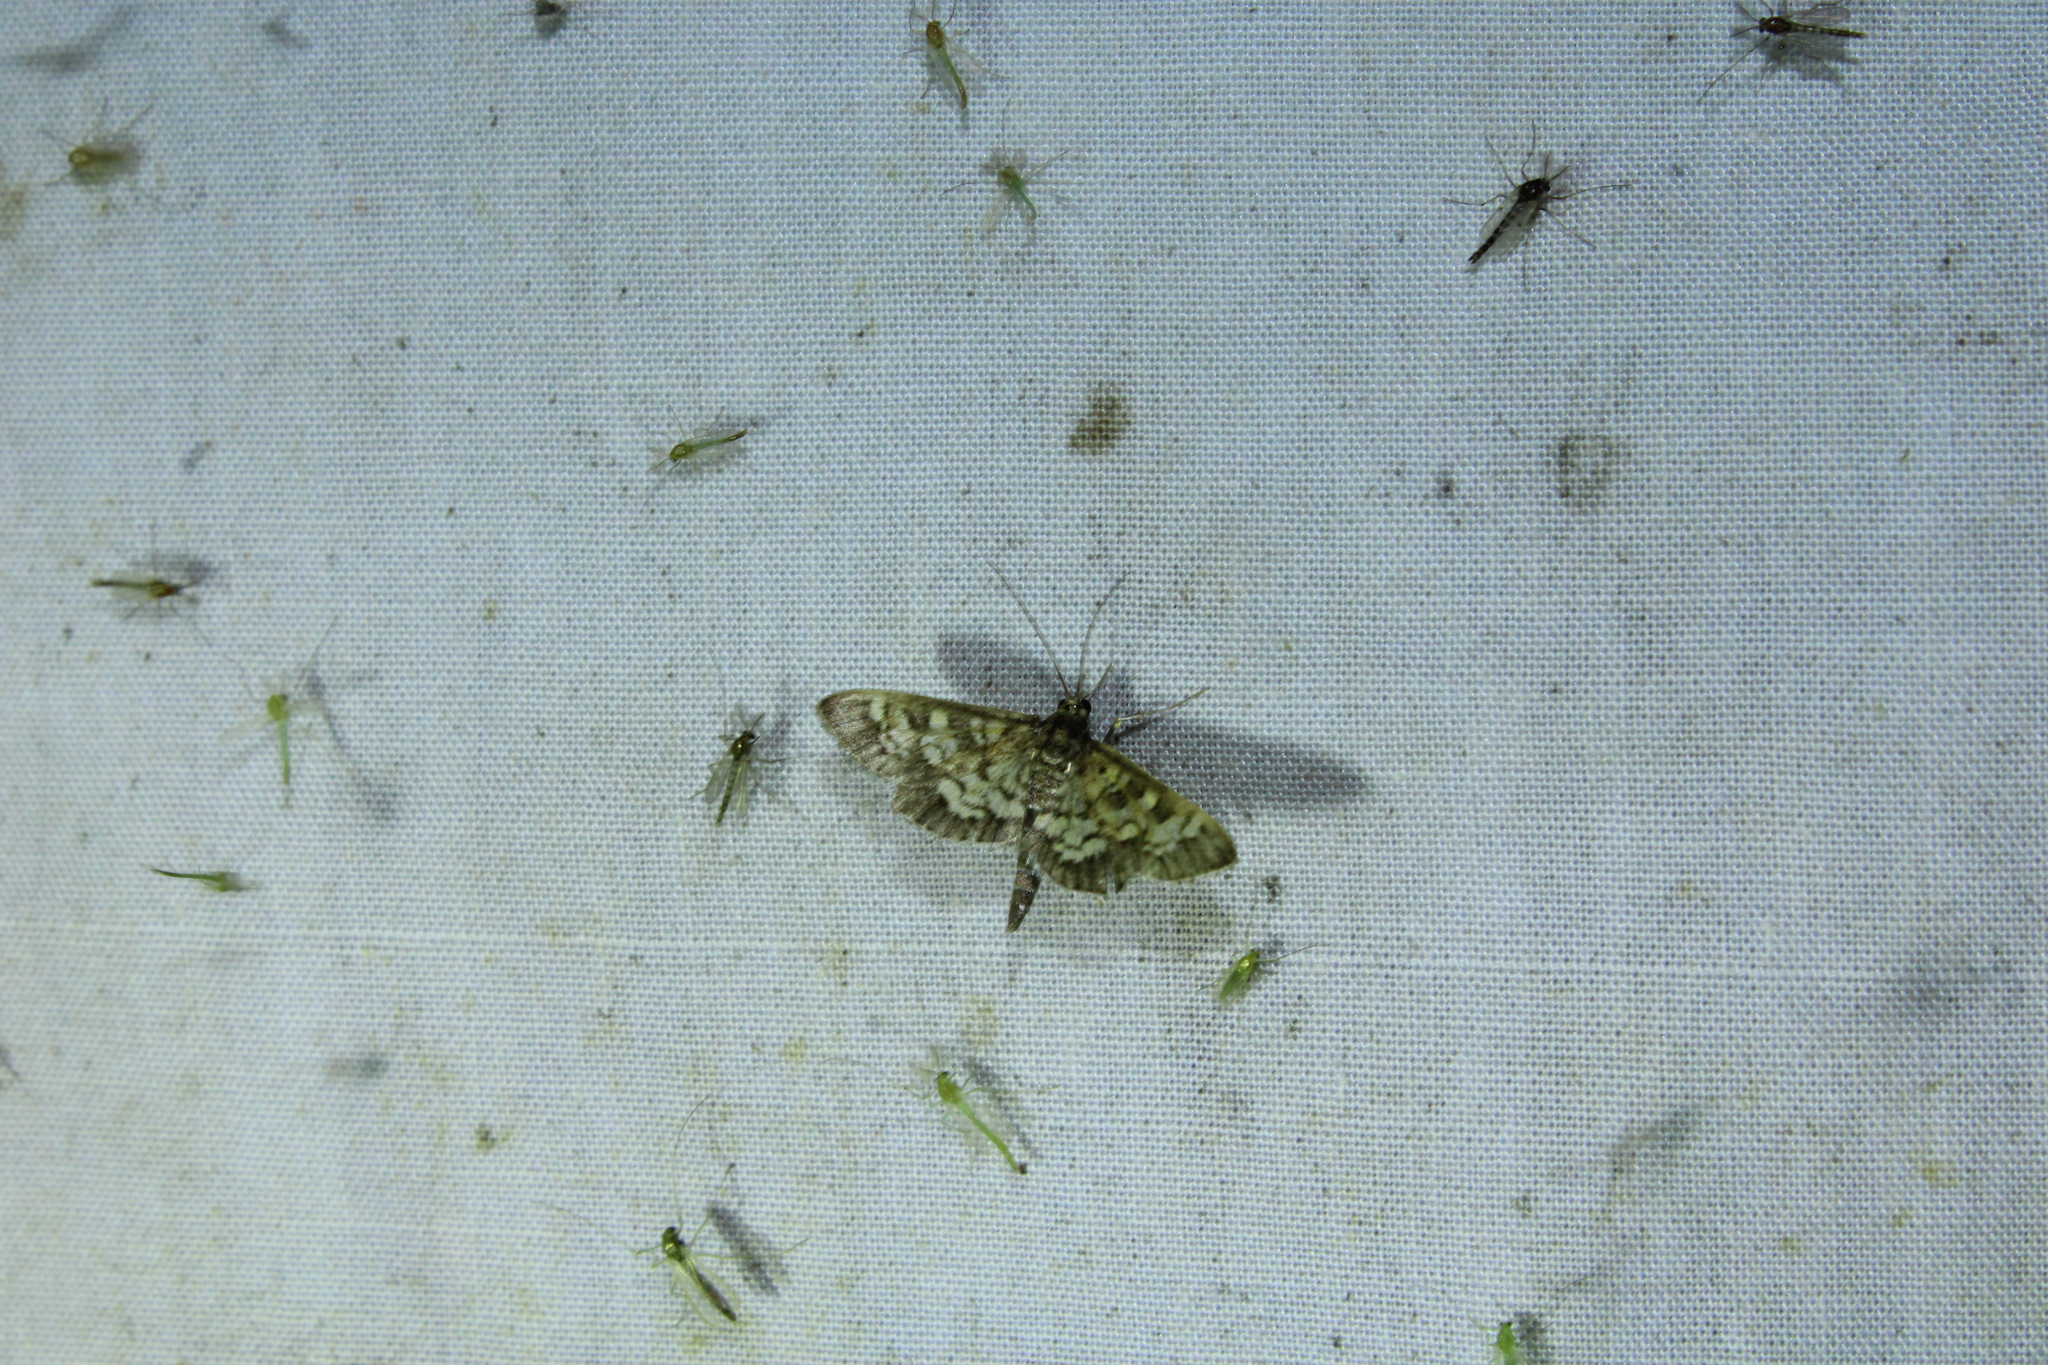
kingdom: Animalia
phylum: Arthropoda
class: Insecta
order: Lepidoptera
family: Crambidae
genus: Epipagis
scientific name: Epipagis adipaloides
